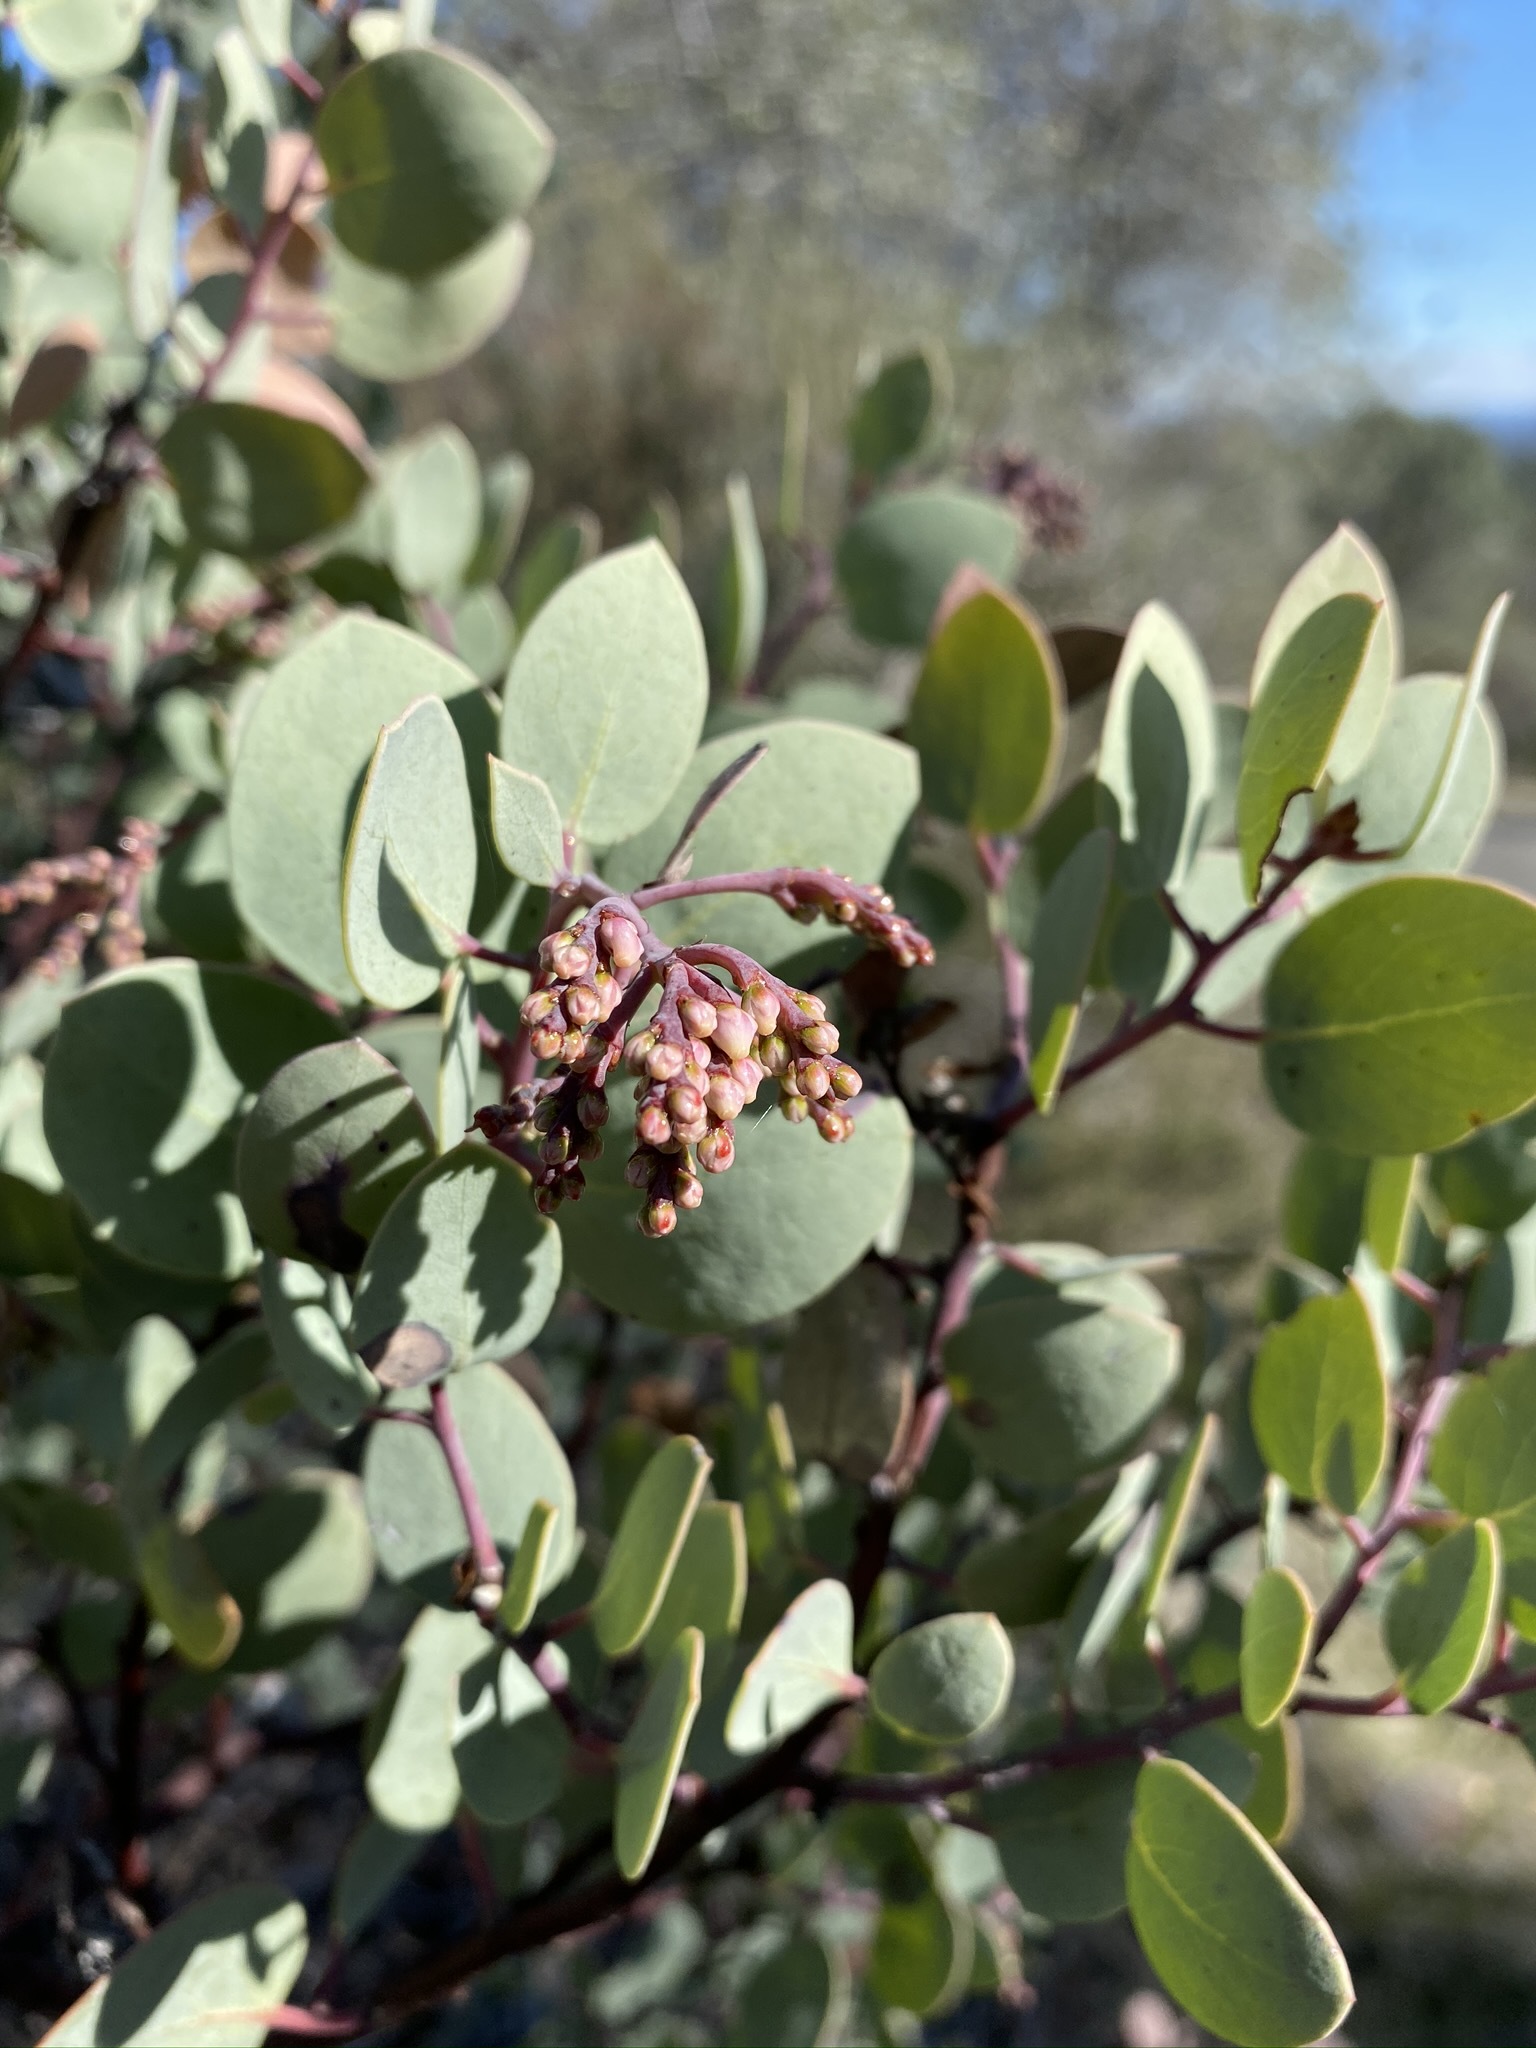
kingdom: Plantae
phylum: Tracheophyta
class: Magnoliopsida
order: Ericales
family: Ericaceae
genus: Arctostaphylos
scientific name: Arctostaphylos viscida
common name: White-leaf manzanita
